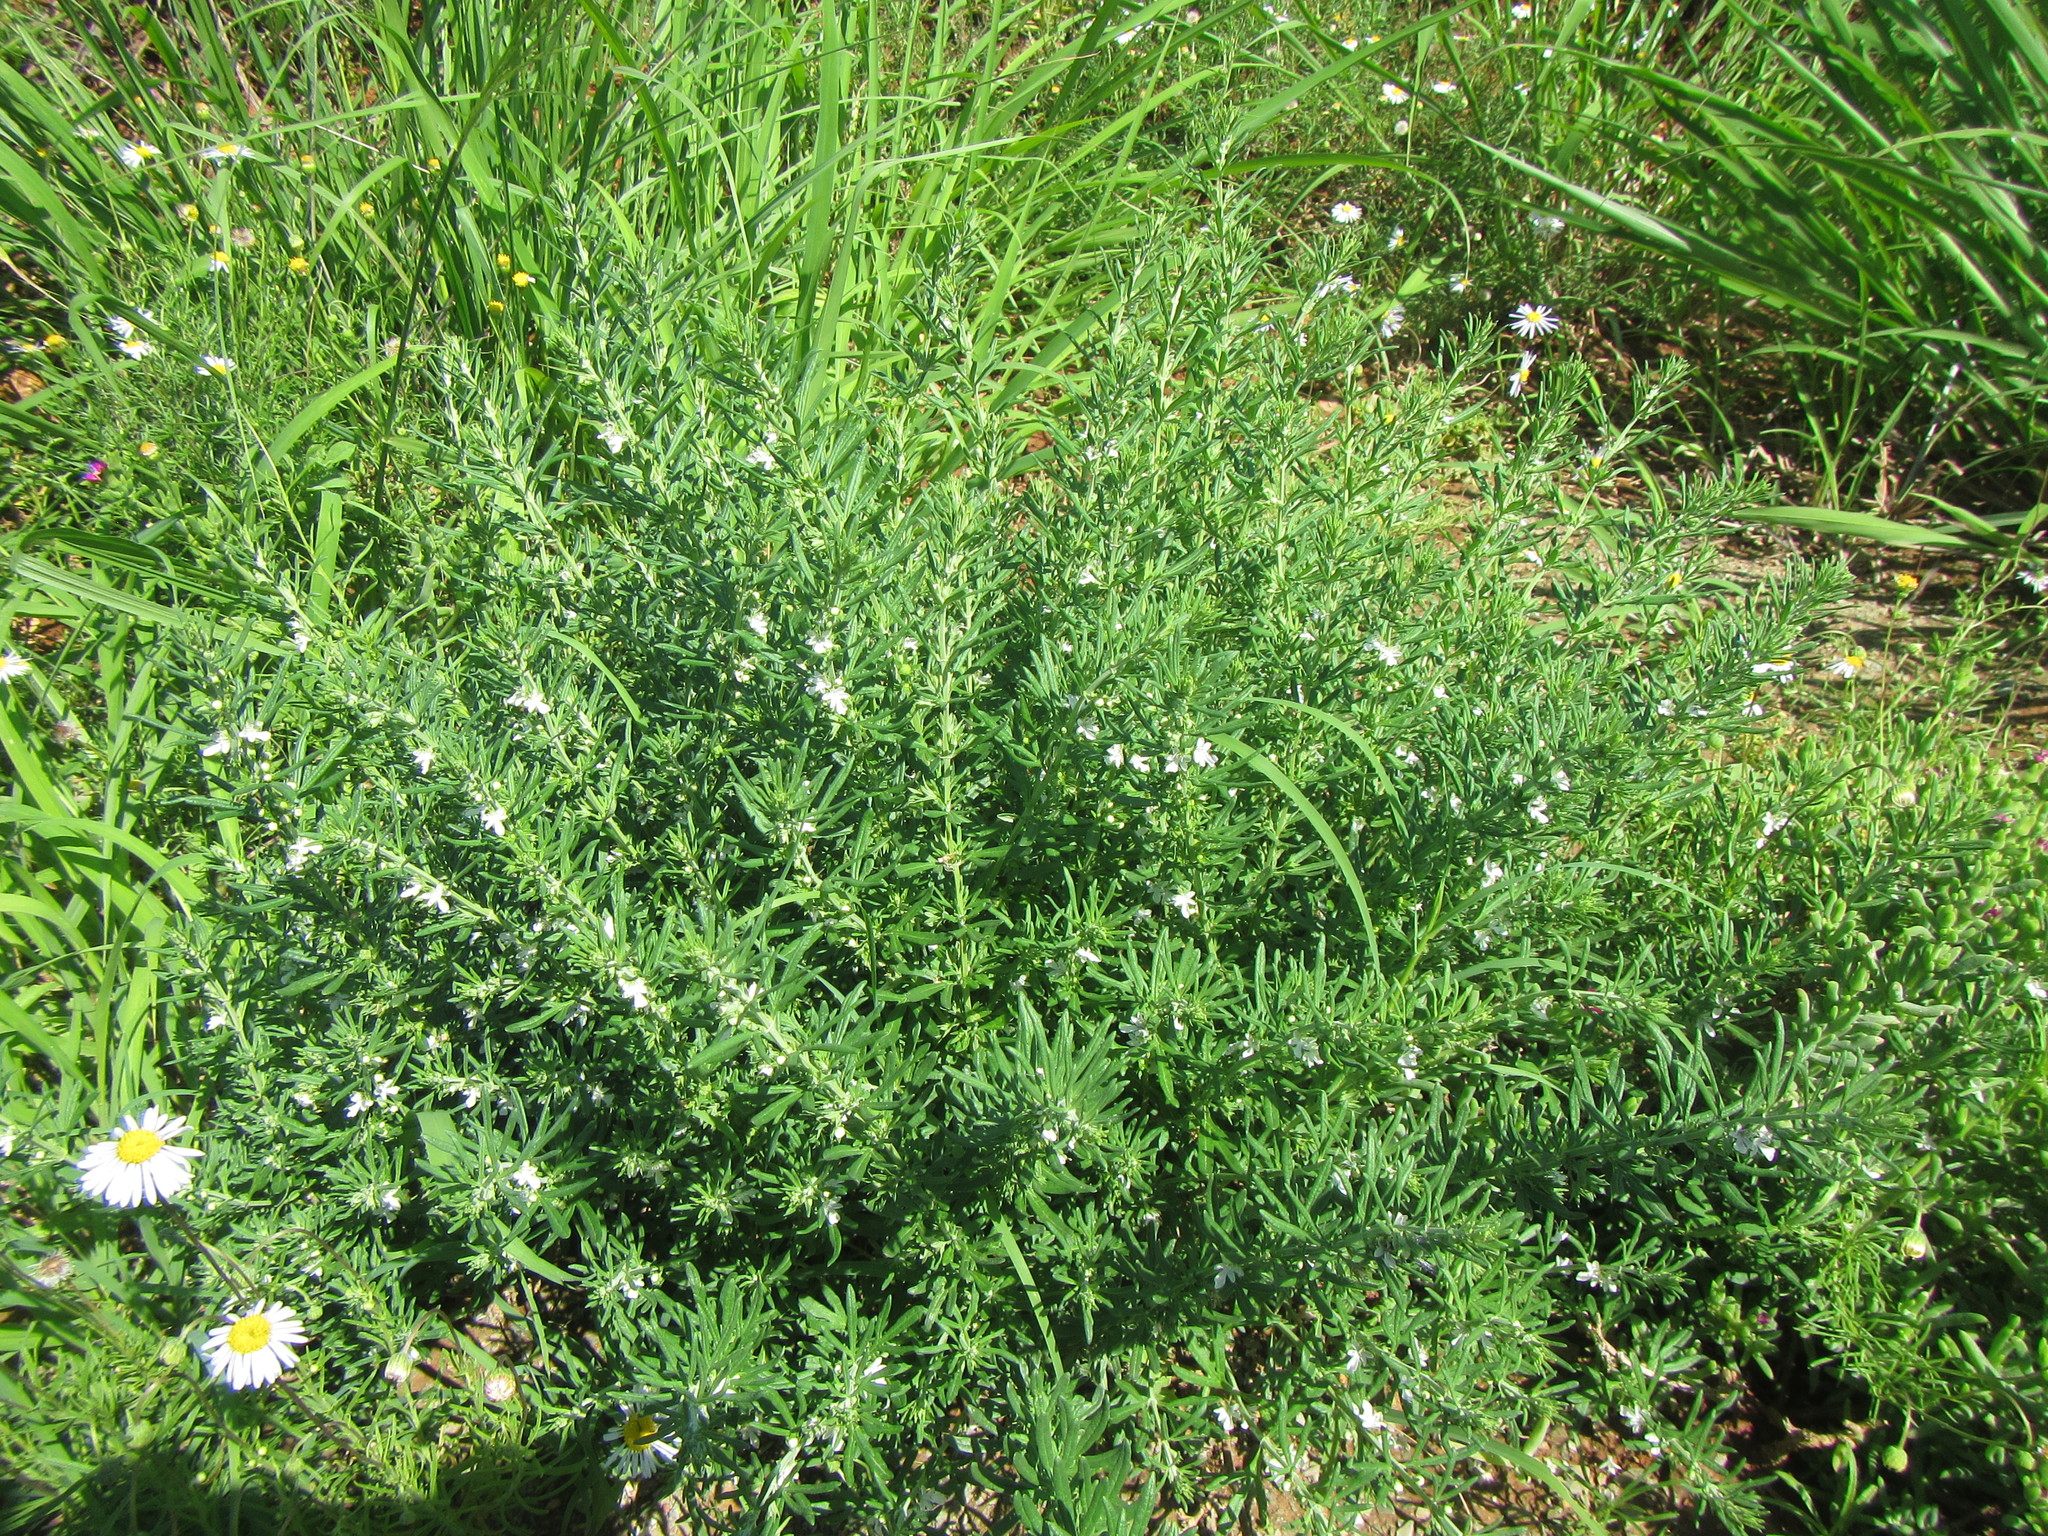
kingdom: Plantae
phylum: Tracheophyta
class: Magnoliopsida
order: Lamiales
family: Lamiaceae
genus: Teucrium
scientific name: Teucrium africanum
